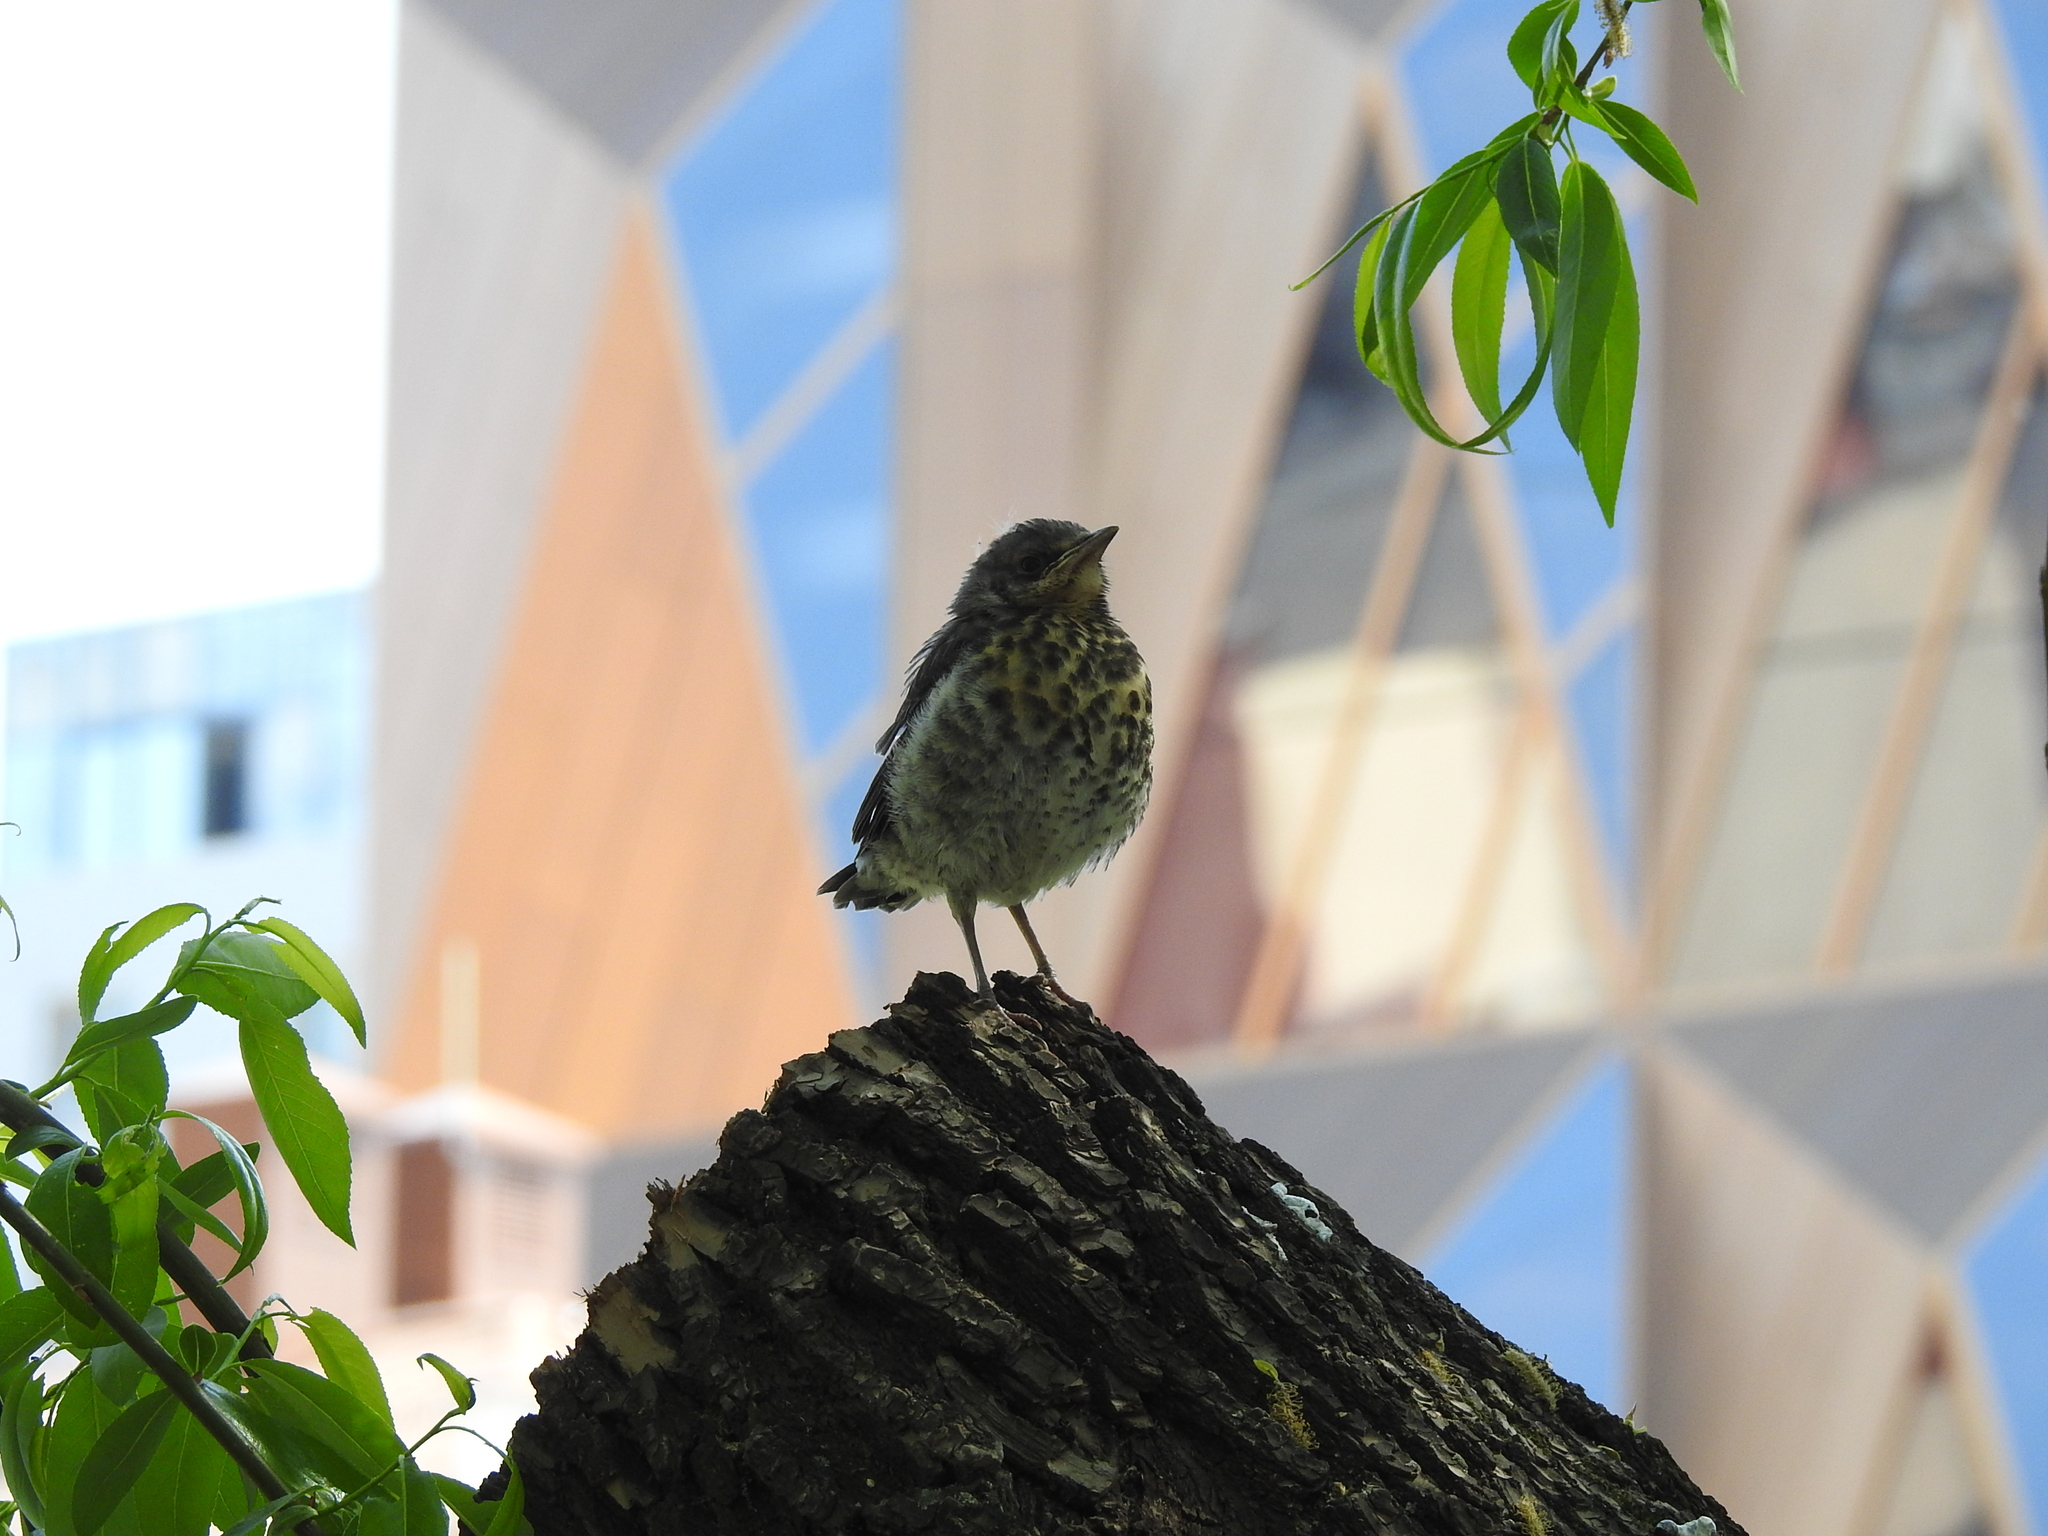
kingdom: Animalia
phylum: Chordata
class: Aves
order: Passeriformes
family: Turdidae
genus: Turdus
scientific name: Turdus pilaris
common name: Fieldfare
